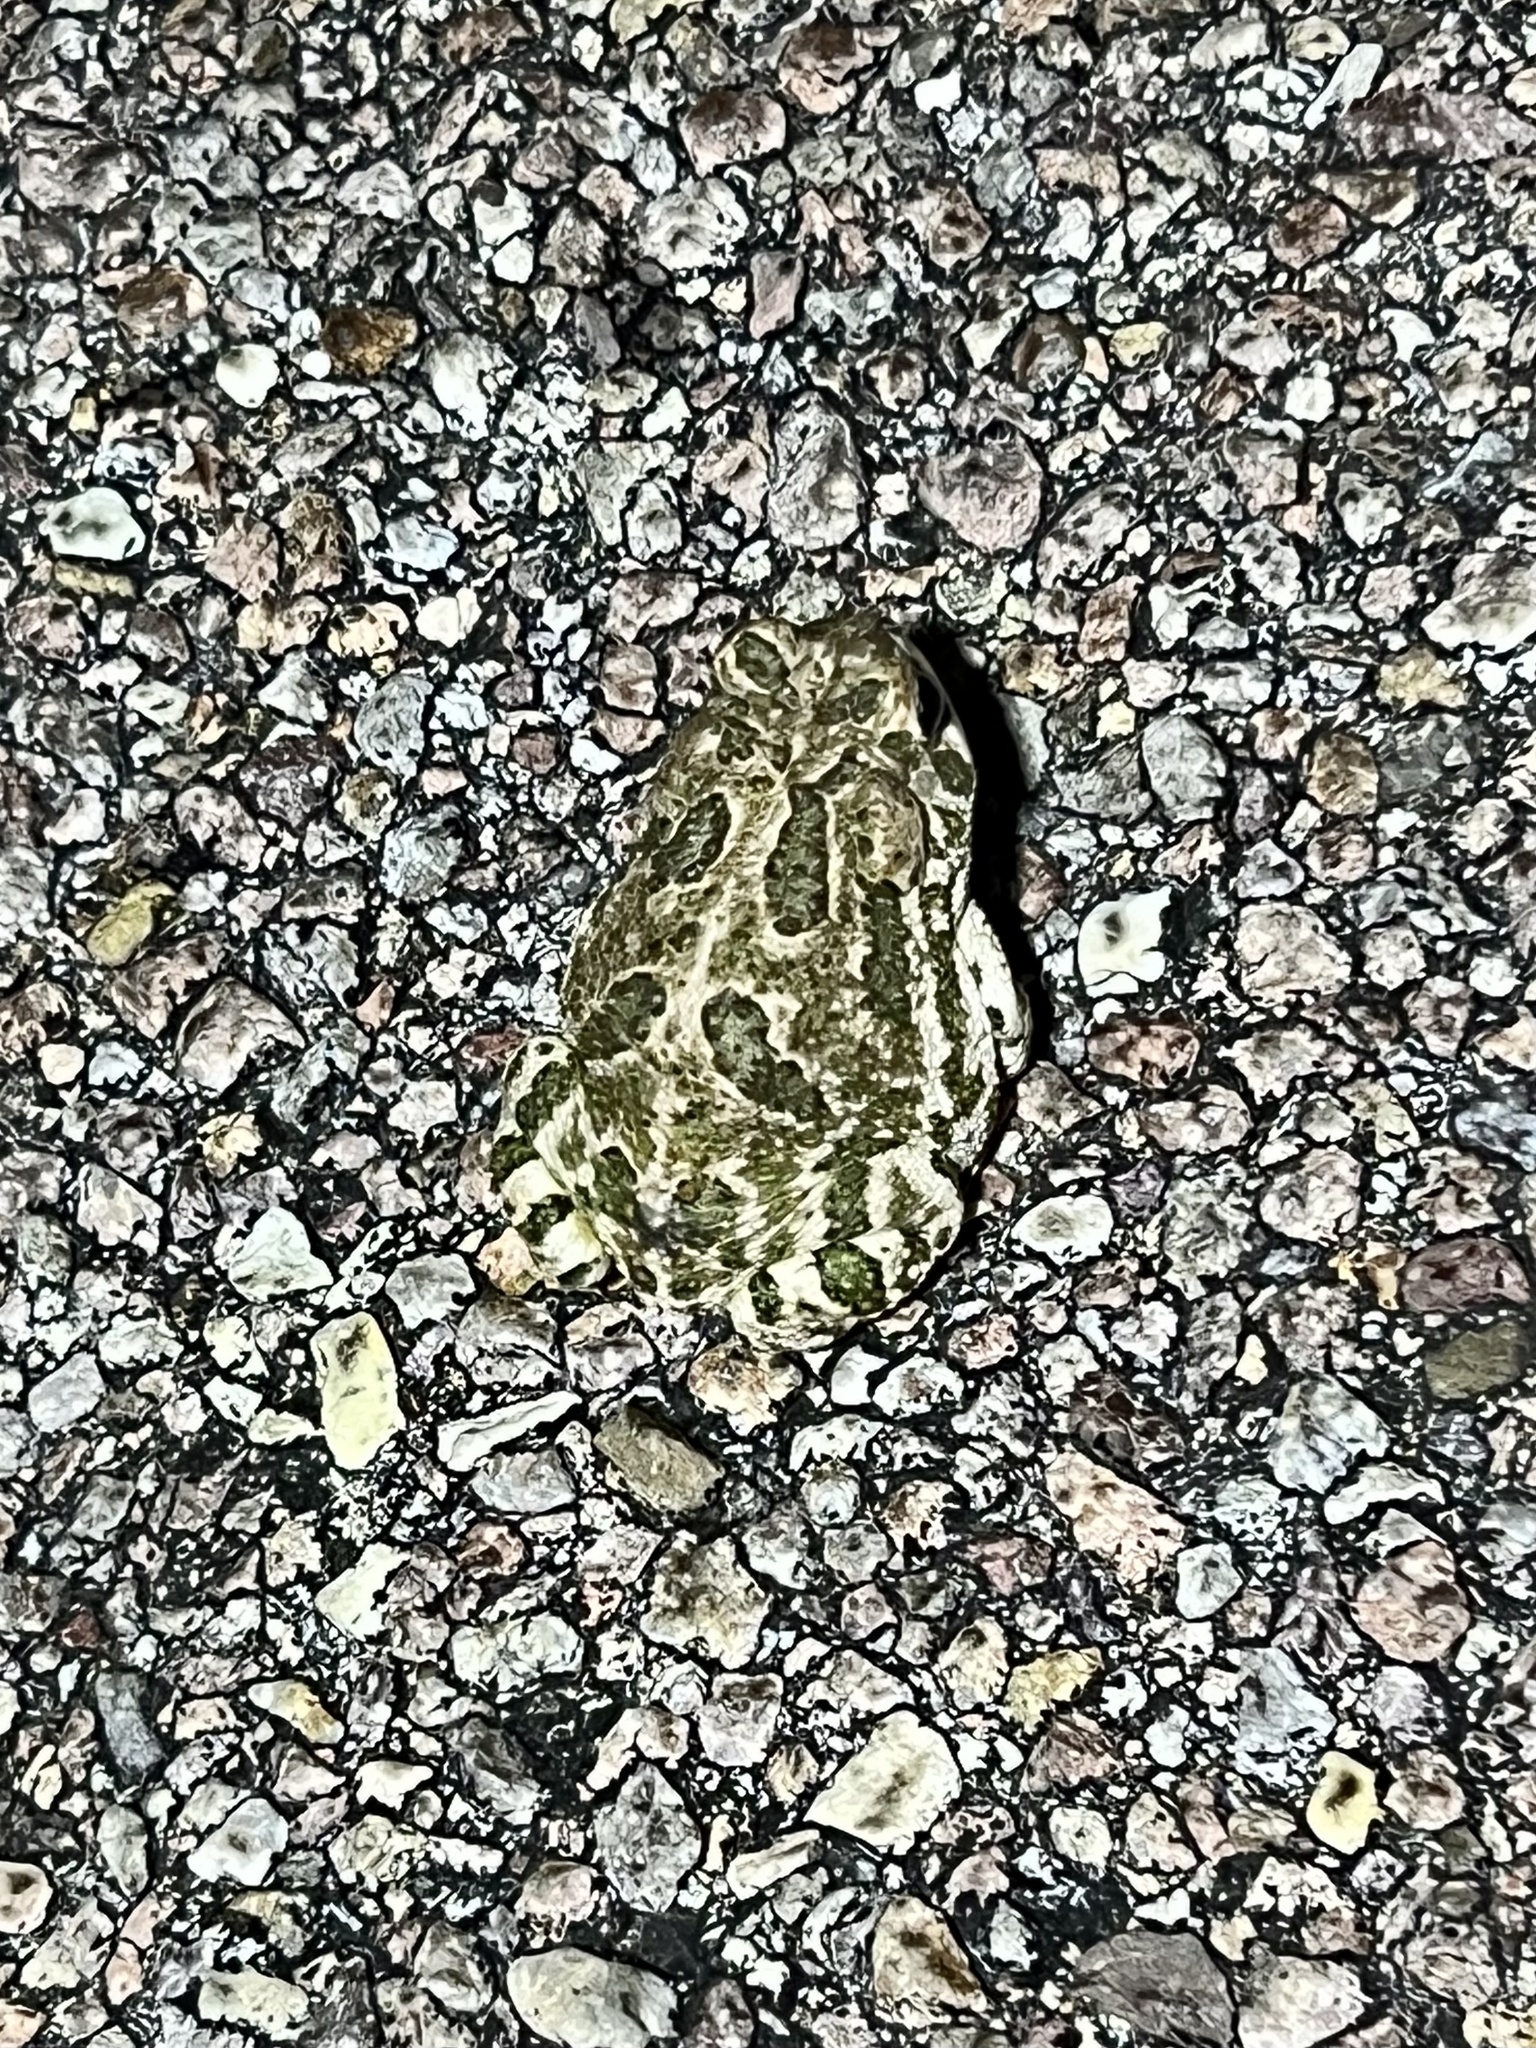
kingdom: Animalia
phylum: Chordata
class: Amphibia
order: Anura
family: Bufonidae
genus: Anaxyrus
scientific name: Anaxyrus cognatus
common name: Great plains toad
